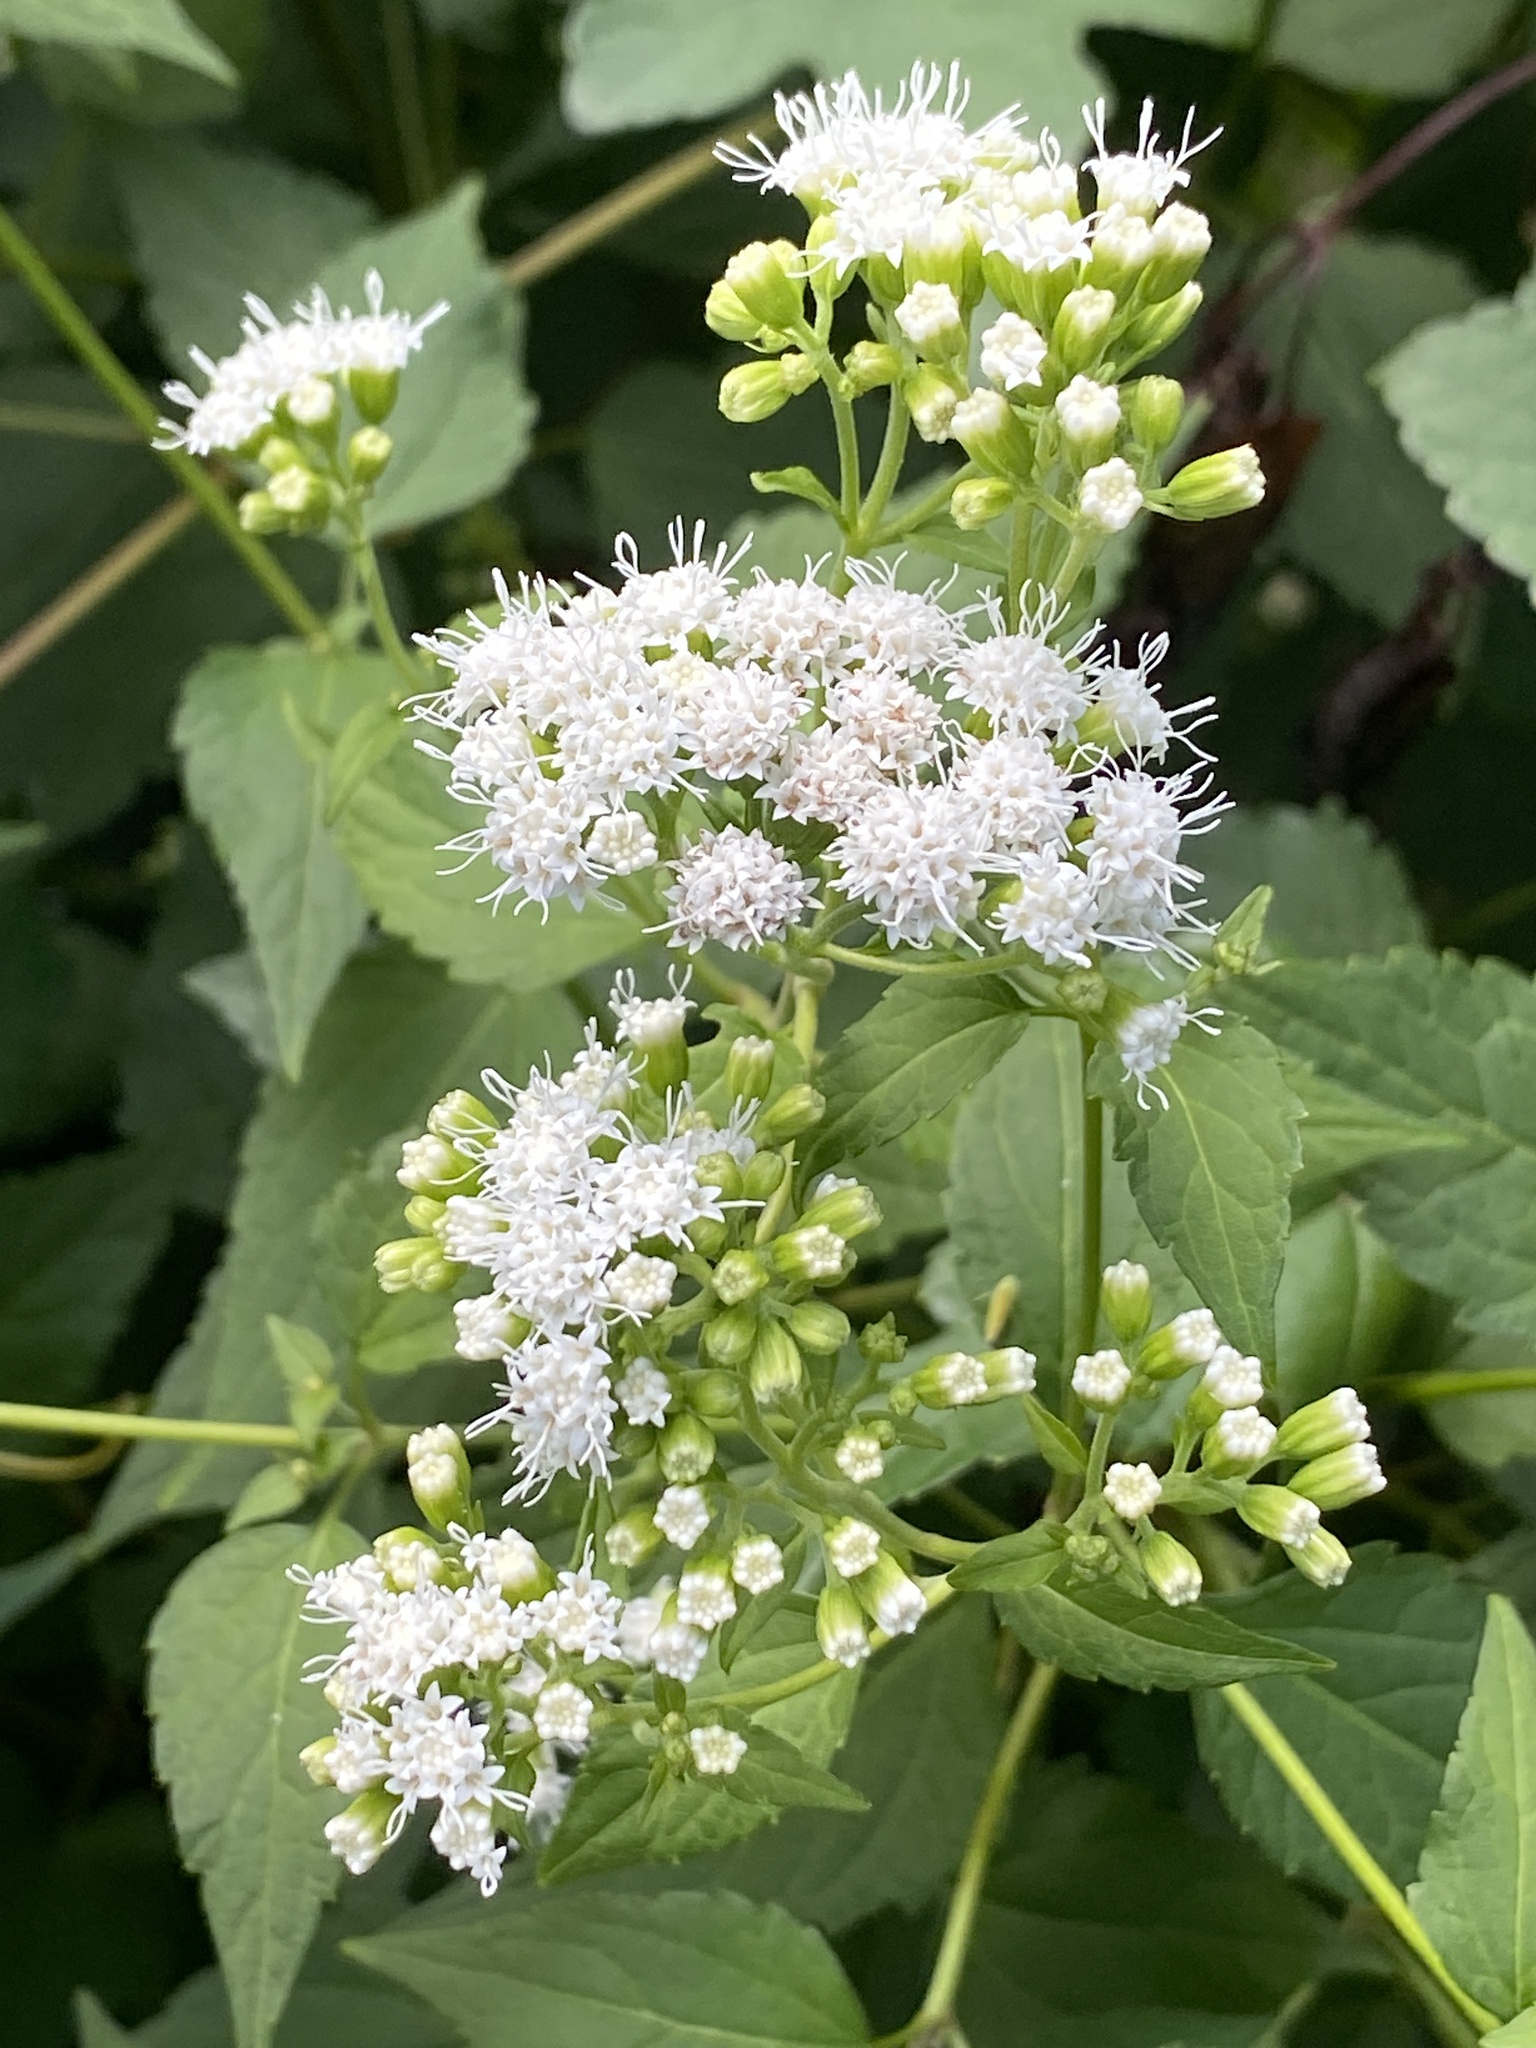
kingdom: Plantae
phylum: Tracheophyta
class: Magnoliopsida
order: Asterales
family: Asteraceae
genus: Ageratina
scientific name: Ageratina altissima
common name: White snakeroot
